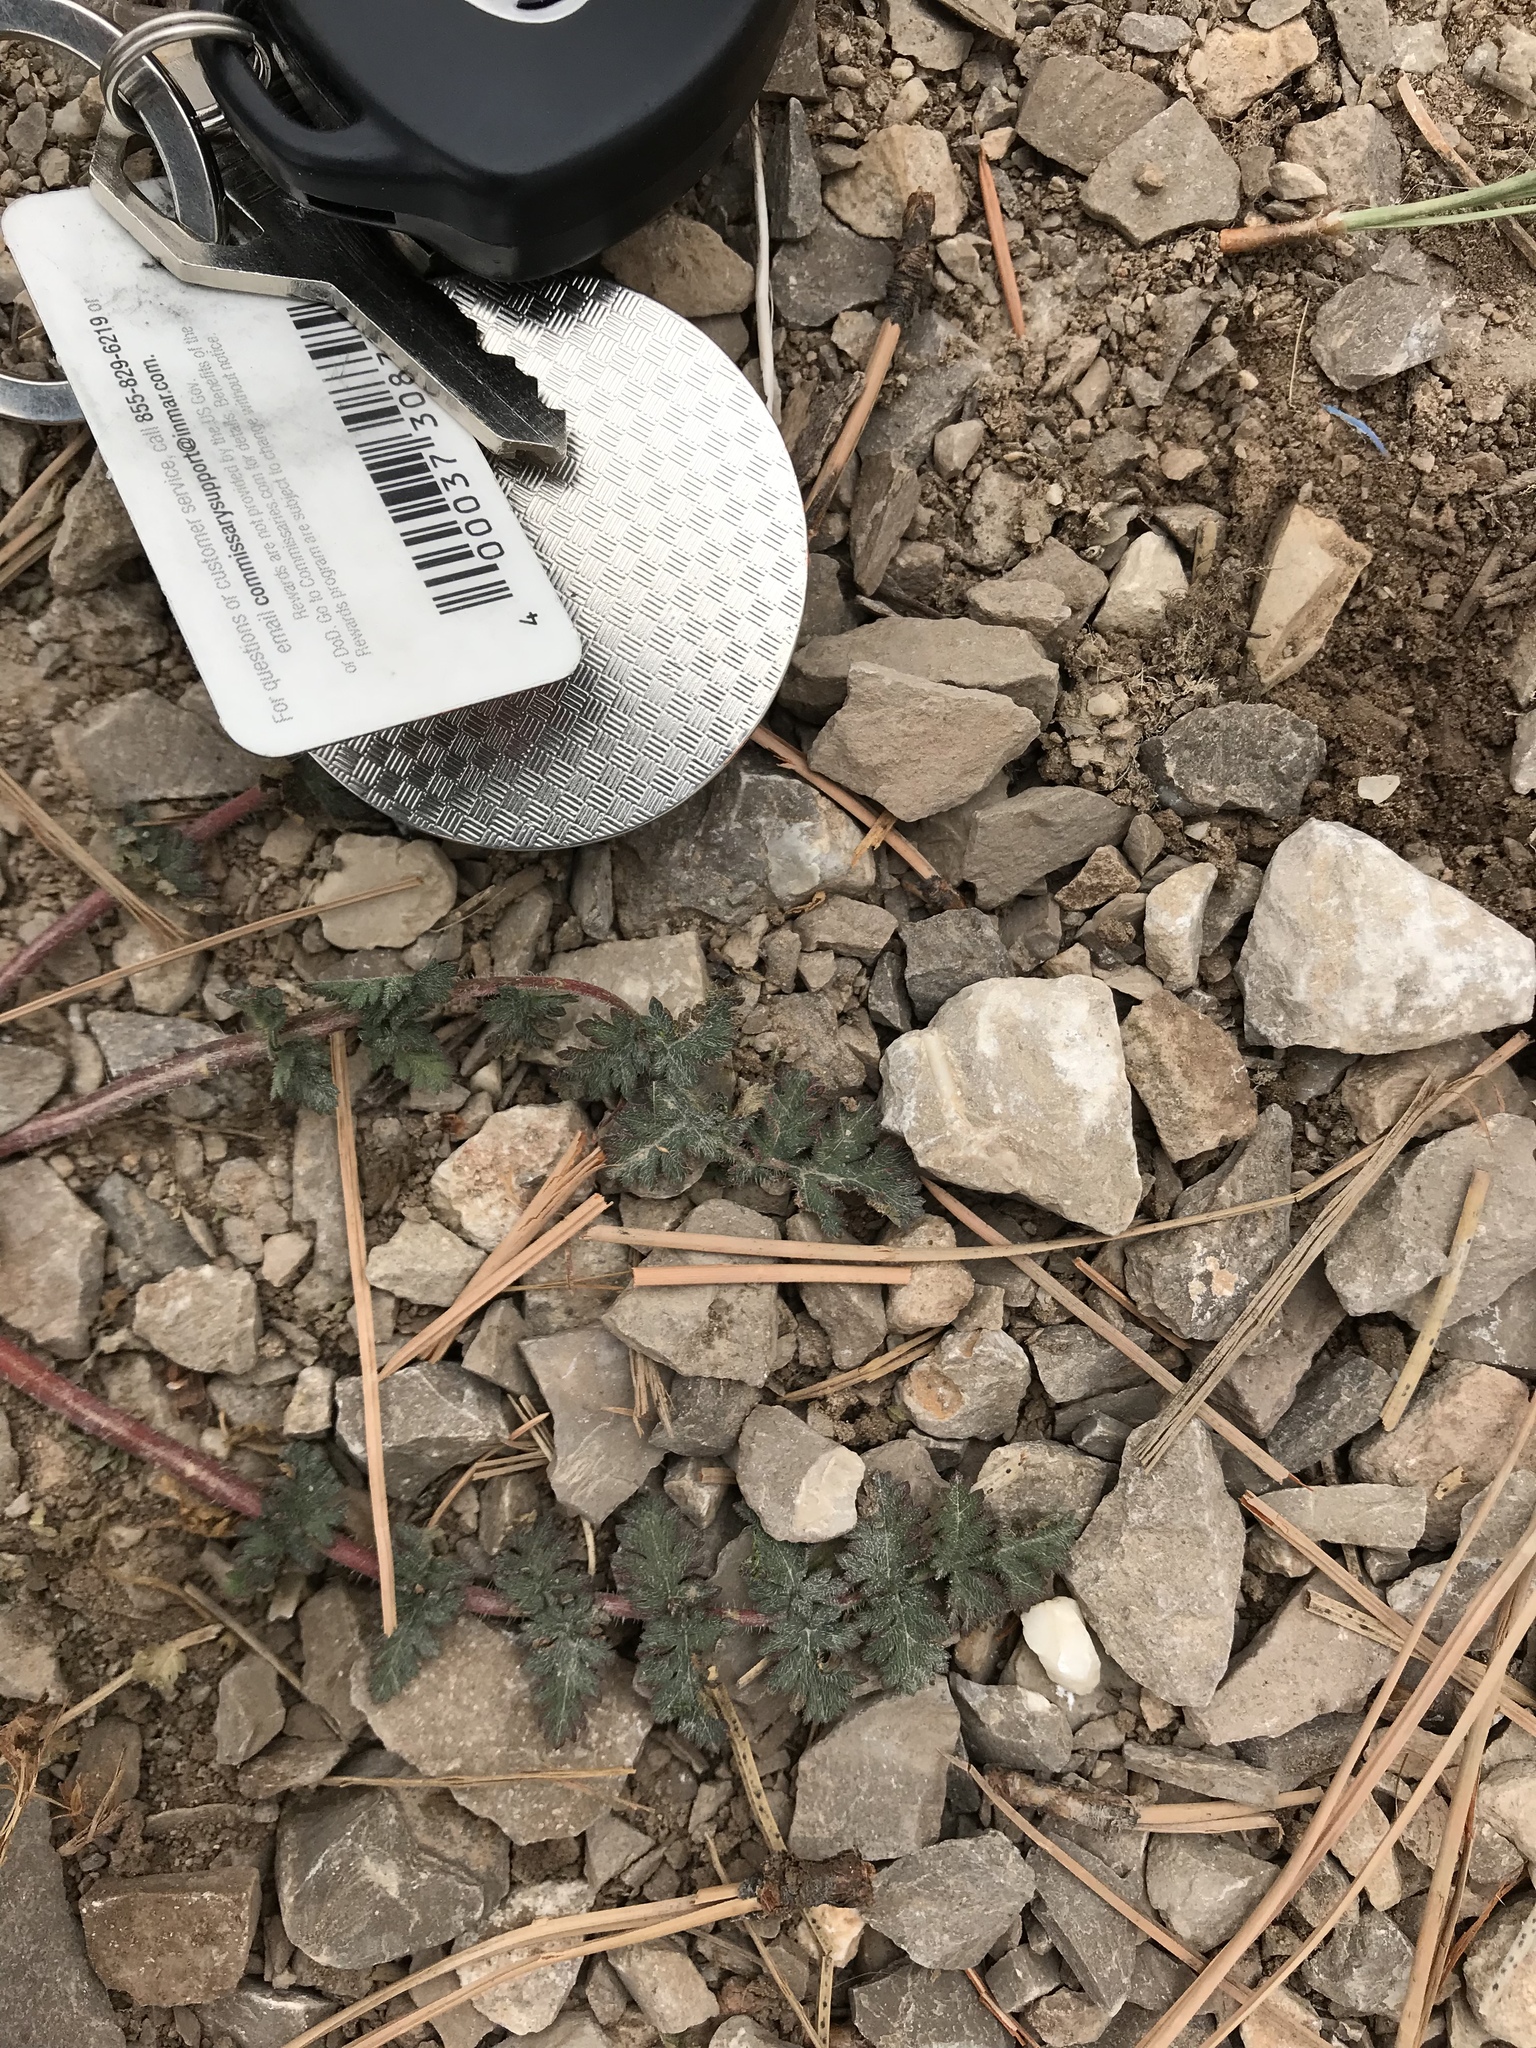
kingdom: Plantae
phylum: Tracheophyta
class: Magnoliopsida
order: Geraniales
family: Geraniaceae
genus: Erodium
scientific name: Erodium cicutarium
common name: Common stork's-bill
